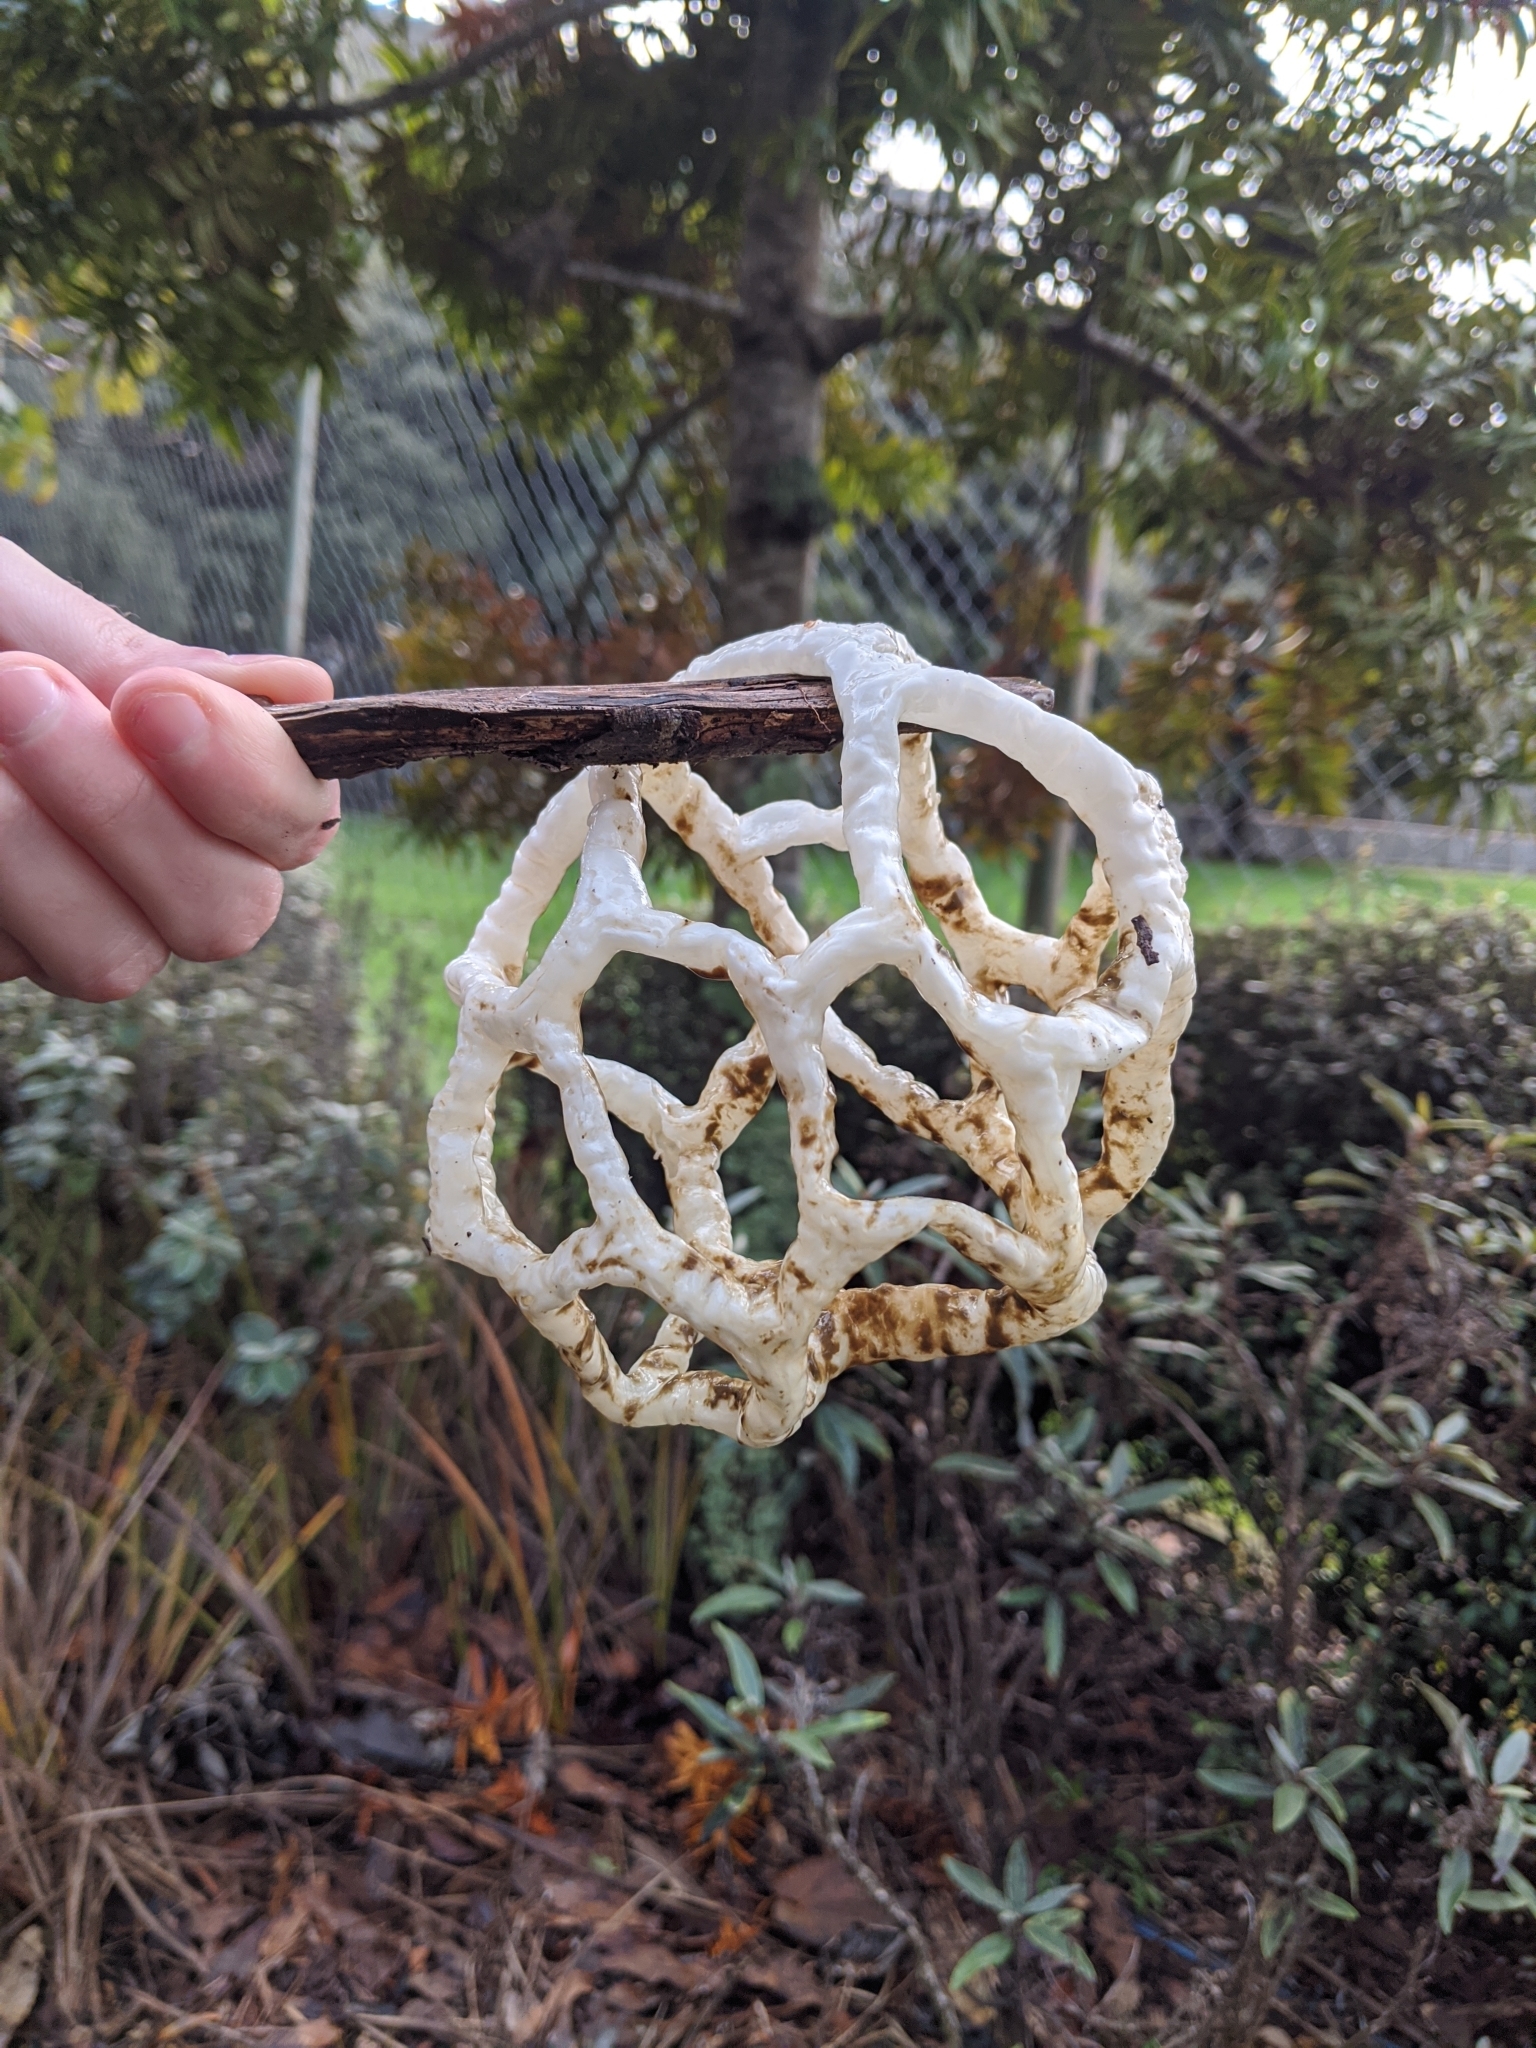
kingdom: Fungi
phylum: Basidiomycota
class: Agaricomycetes
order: Phallales
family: Phallaceae
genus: Ileodictyon
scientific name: Ileodictyon cibarium
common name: Basket fungus
